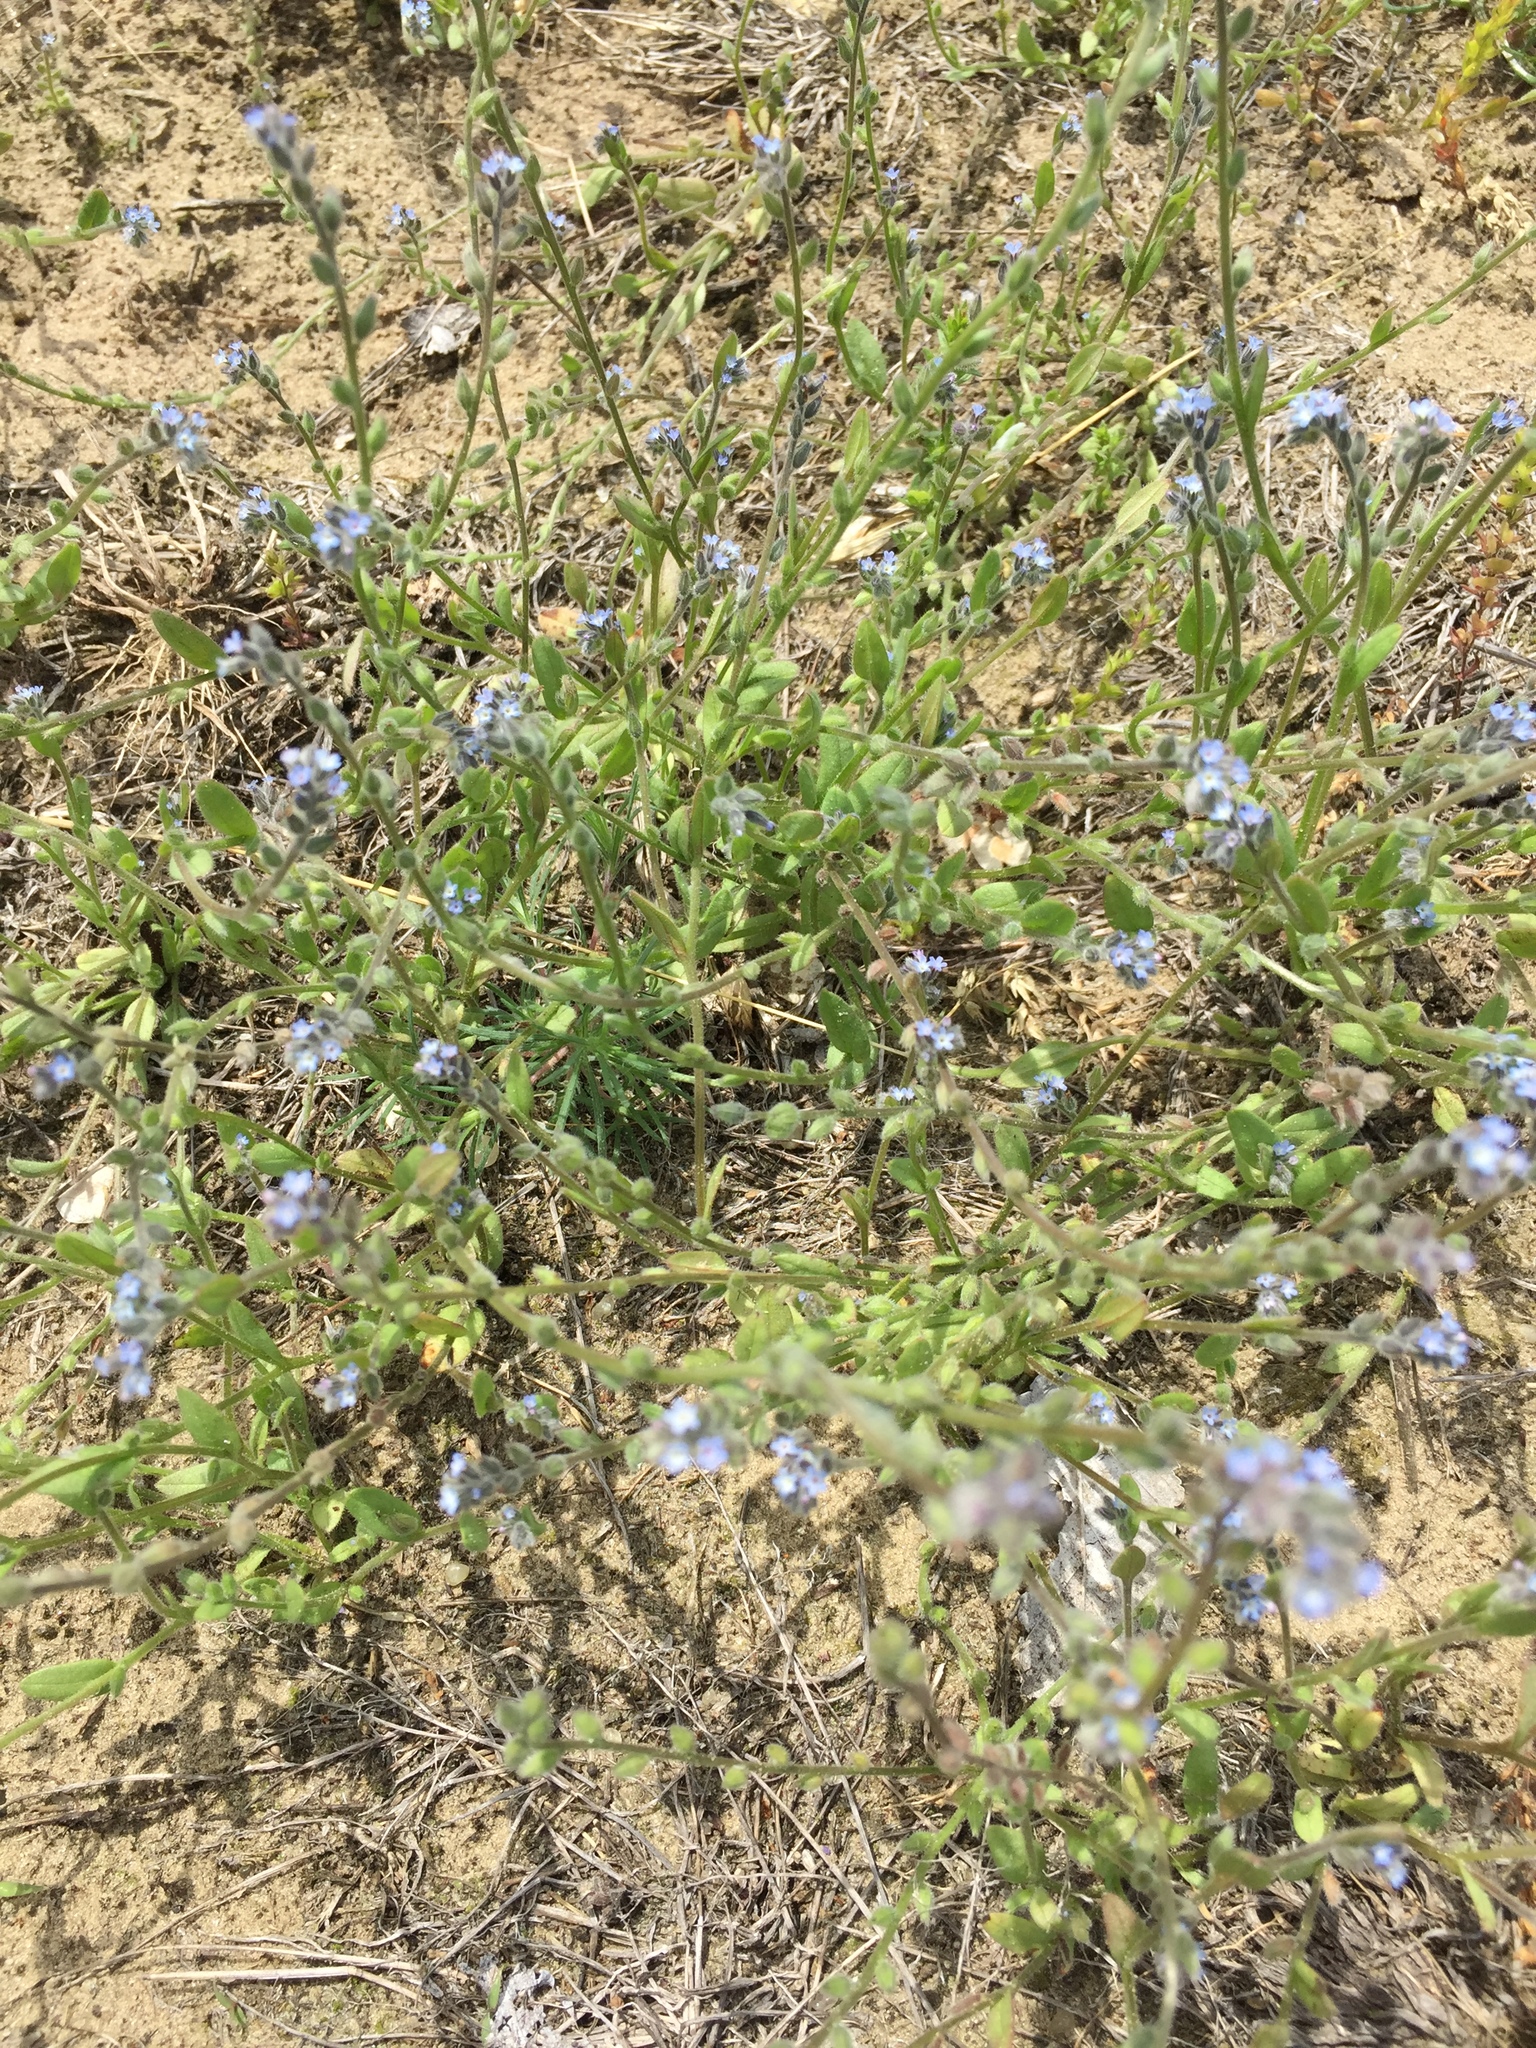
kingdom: Plantae
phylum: Tracheophyta
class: Magnoliopsida
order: Boraginales
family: Boraginaceae
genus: Myosotis
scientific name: Myosotis stricta
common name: Strict forget-me-not
